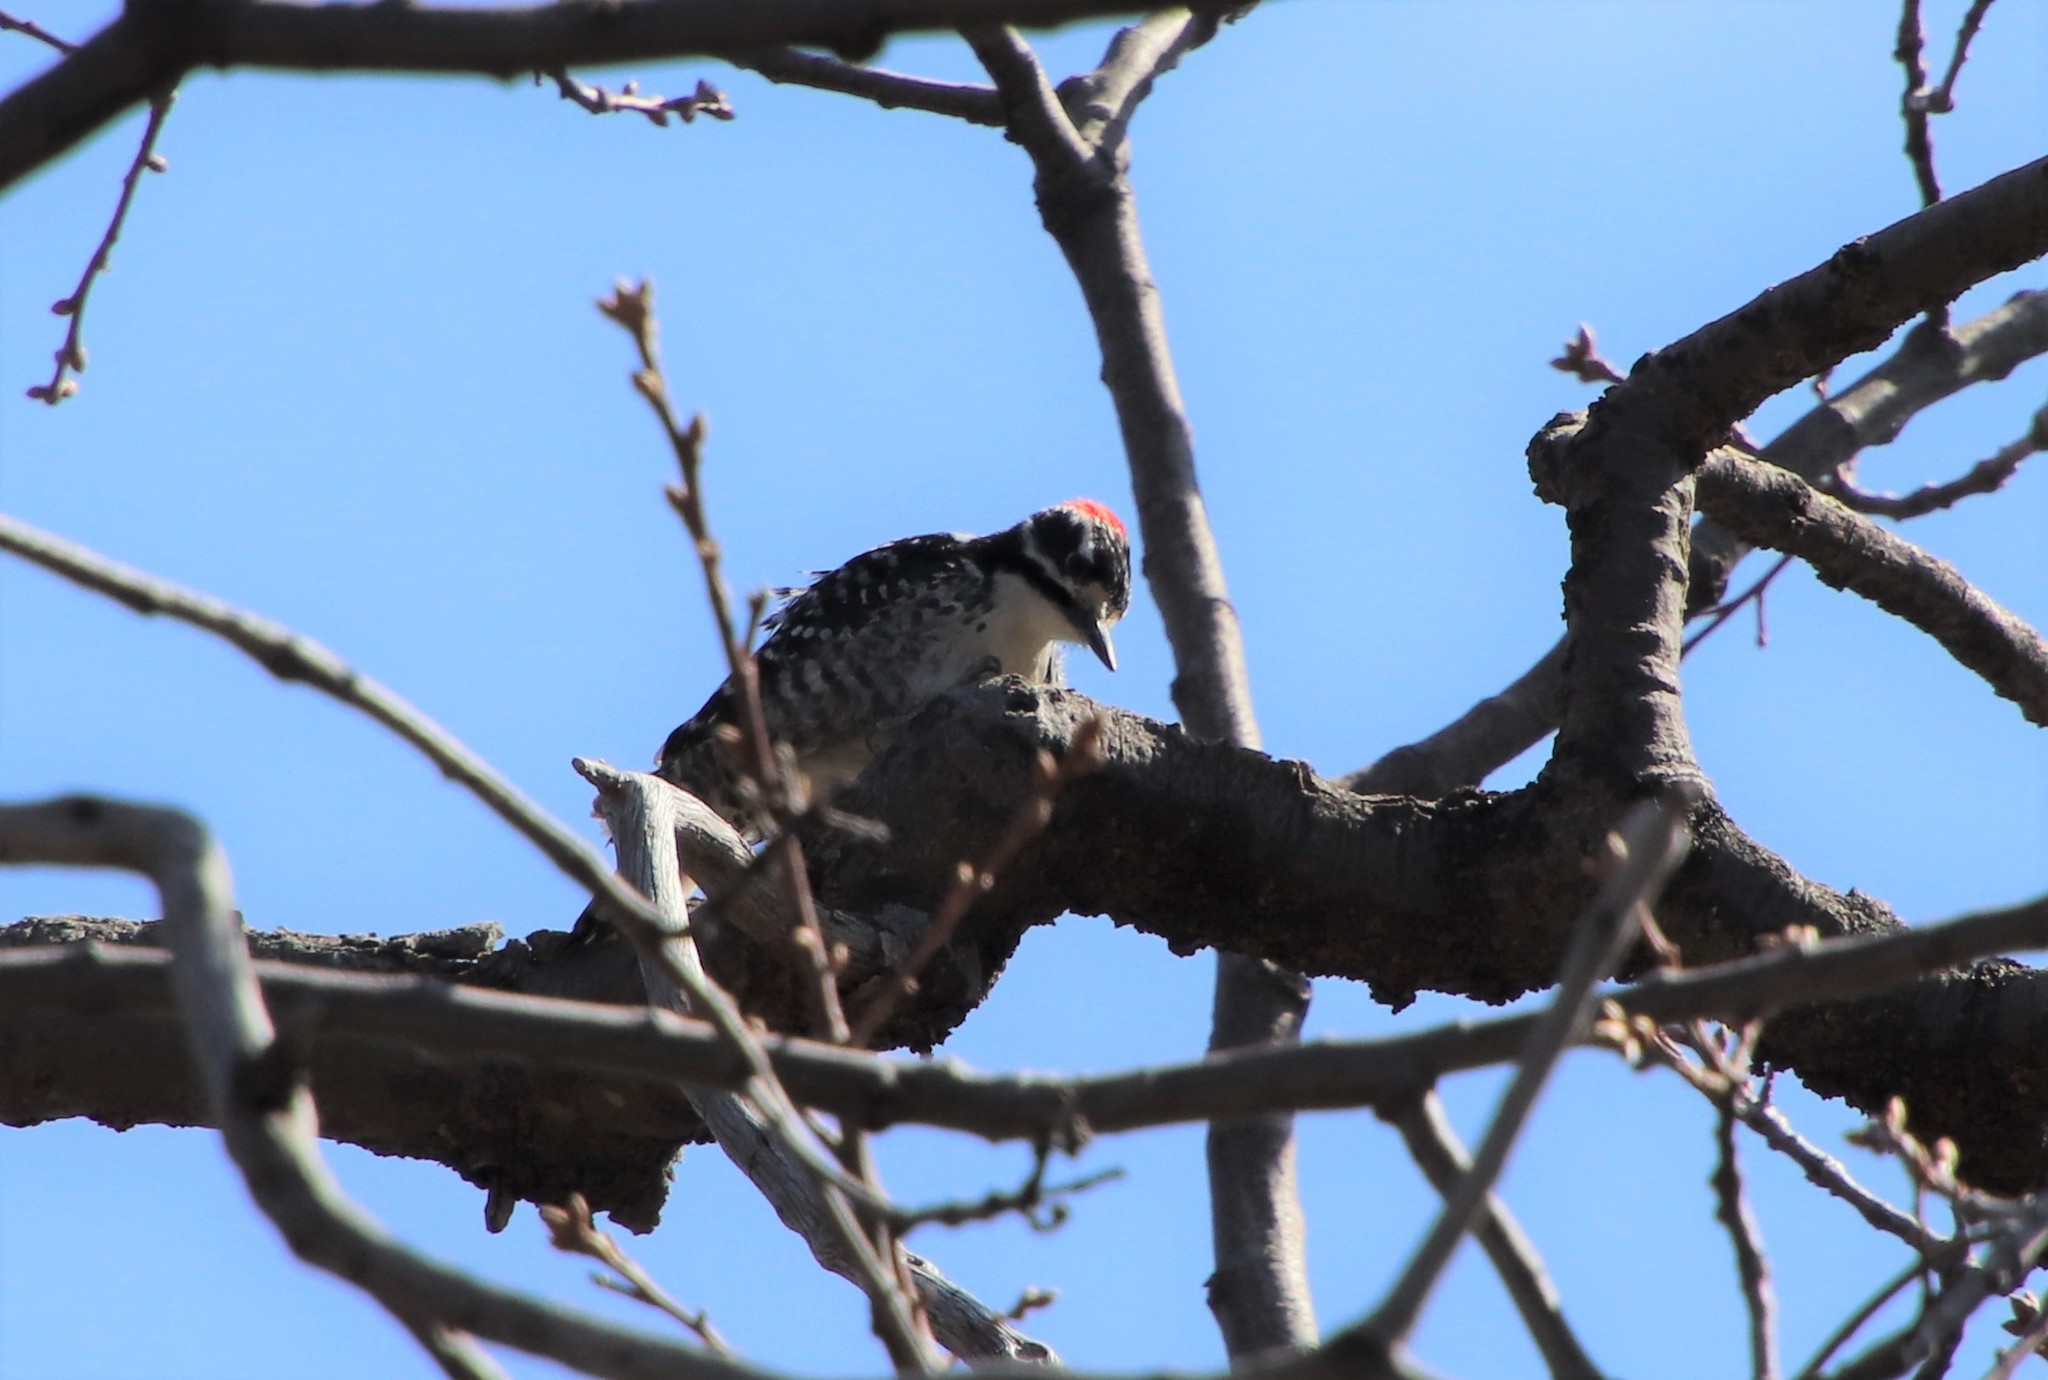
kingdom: Animalia
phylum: Chordata
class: Aves
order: Piciformes
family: Picidae
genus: Dryobates
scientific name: Dryobates nuttallii
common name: Nuttall's woodpecker
